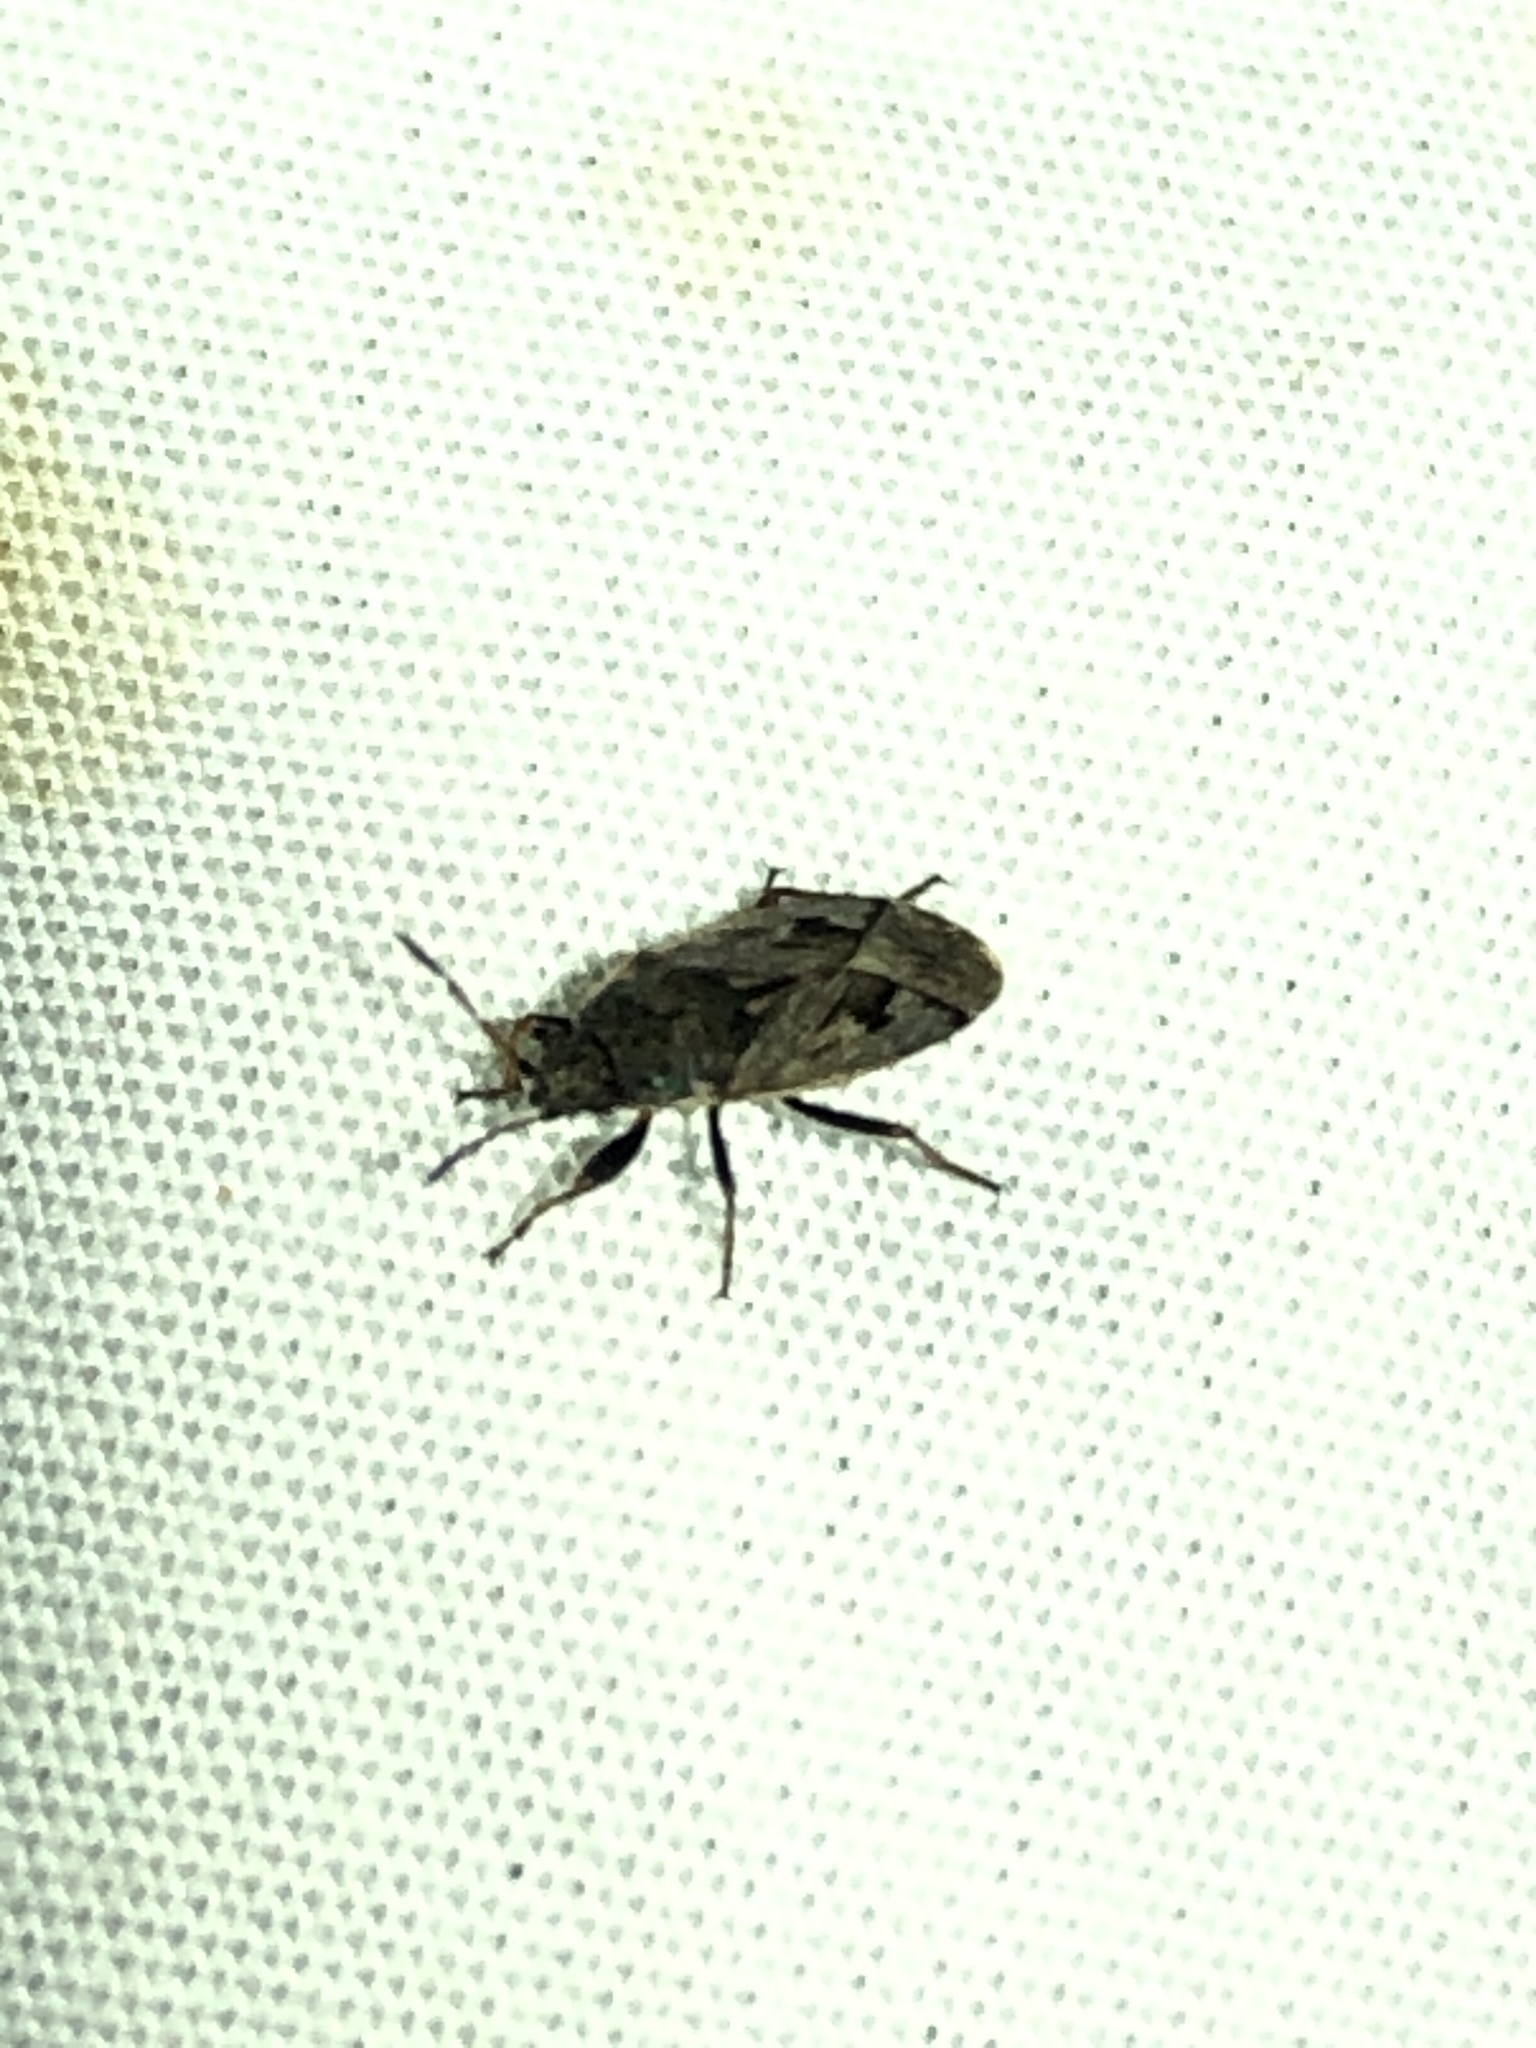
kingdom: Animalia
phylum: Arthropoda
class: Insecta
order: Hemiptera
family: Rhyparochromidae
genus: Sphragisticus
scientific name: Sphragisticus nebulosus
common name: Dirt-colored seed bug
